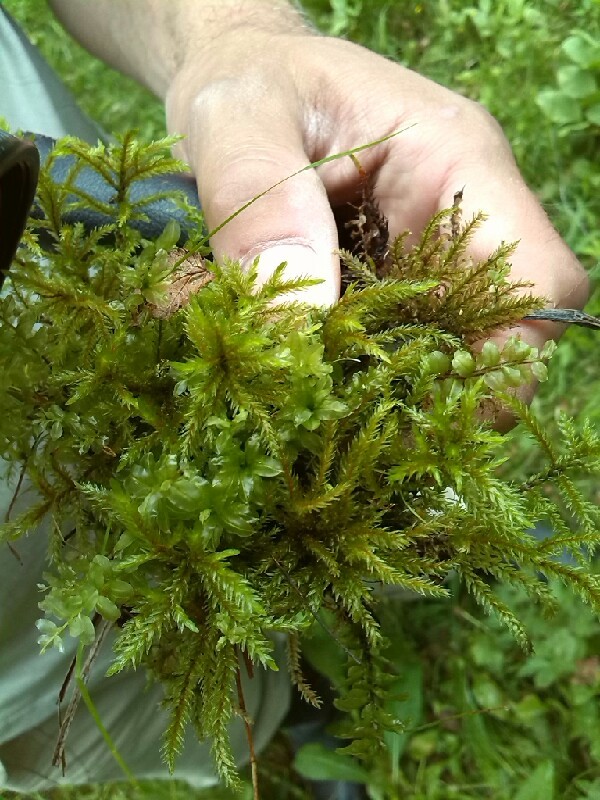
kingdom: Plantae
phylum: Bryophyta
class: Bryopsida
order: Hypnales
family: Climaciaceae
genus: Climacium
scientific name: Climacium dendroides
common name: Northern tree moss
